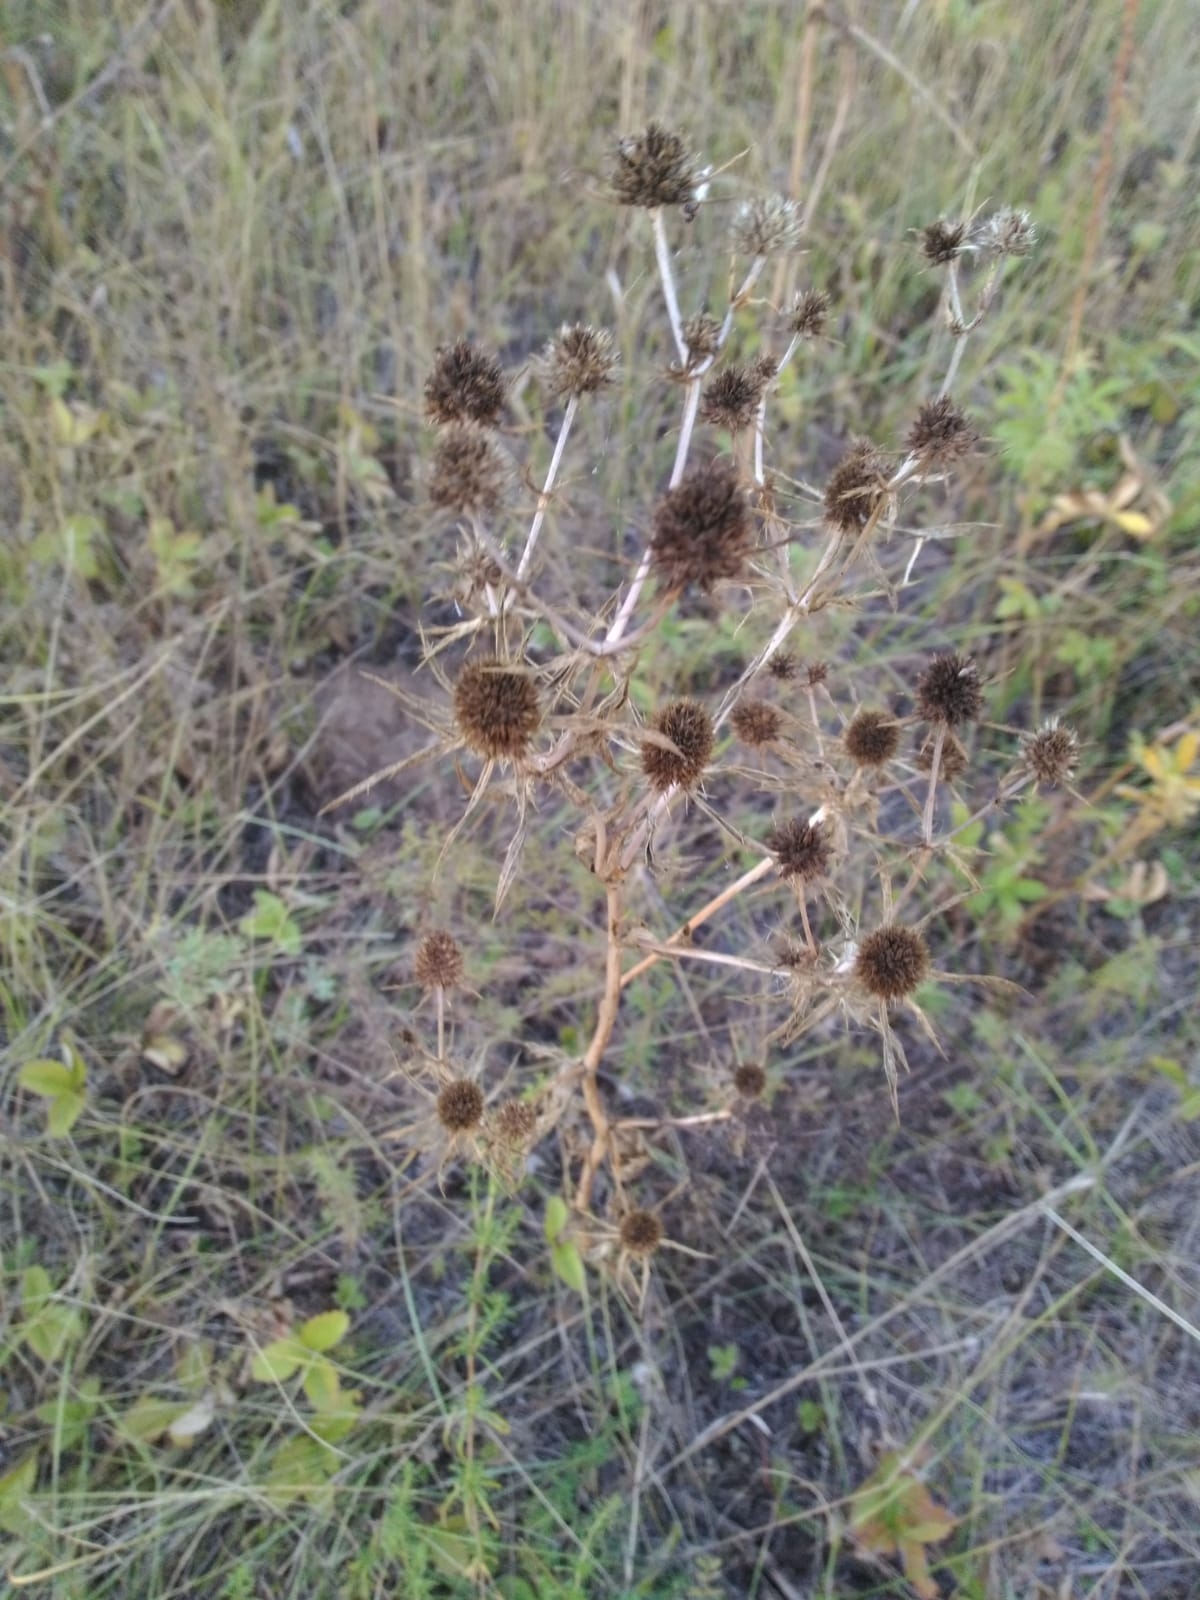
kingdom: Plantae
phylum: Tracheophyta
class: Magnoliopsida
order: Apiales
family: Apiaceae
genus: Eryngium
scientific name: Eryngium planum
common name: Blue eryngo
